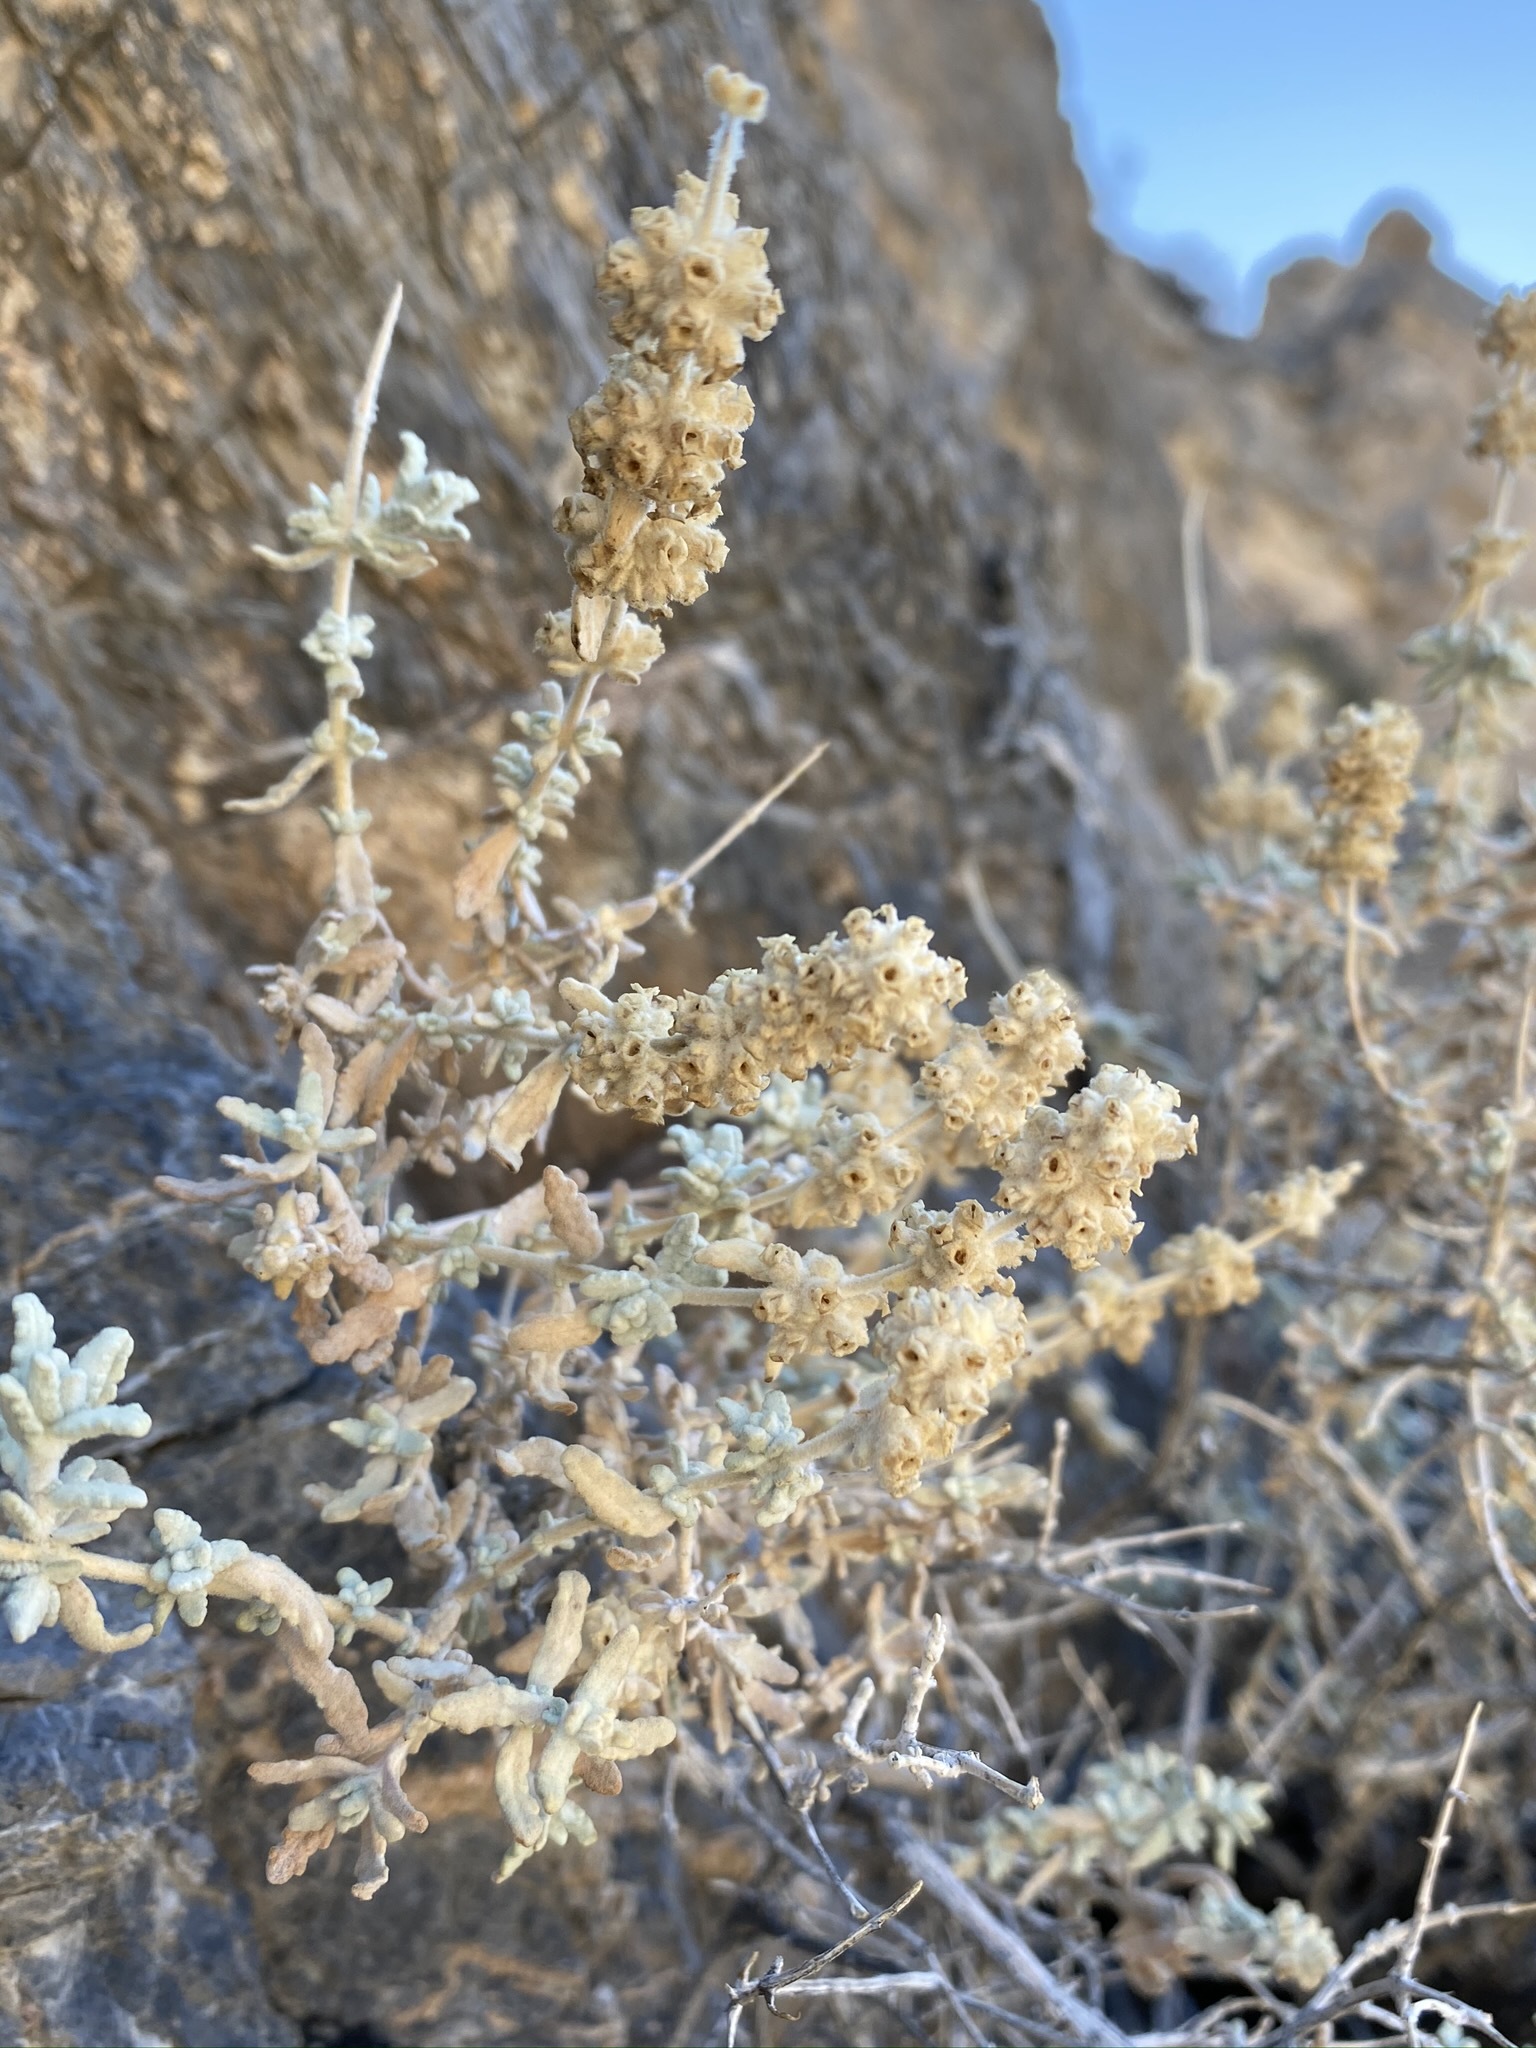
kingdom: Plantae
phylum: Tracheophyta
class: Magnoliopsida
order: Lamiales
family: Scrophulariaceae
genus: Buddleja
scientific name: Buddleja utahensis
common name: Utah butterfly-bush
